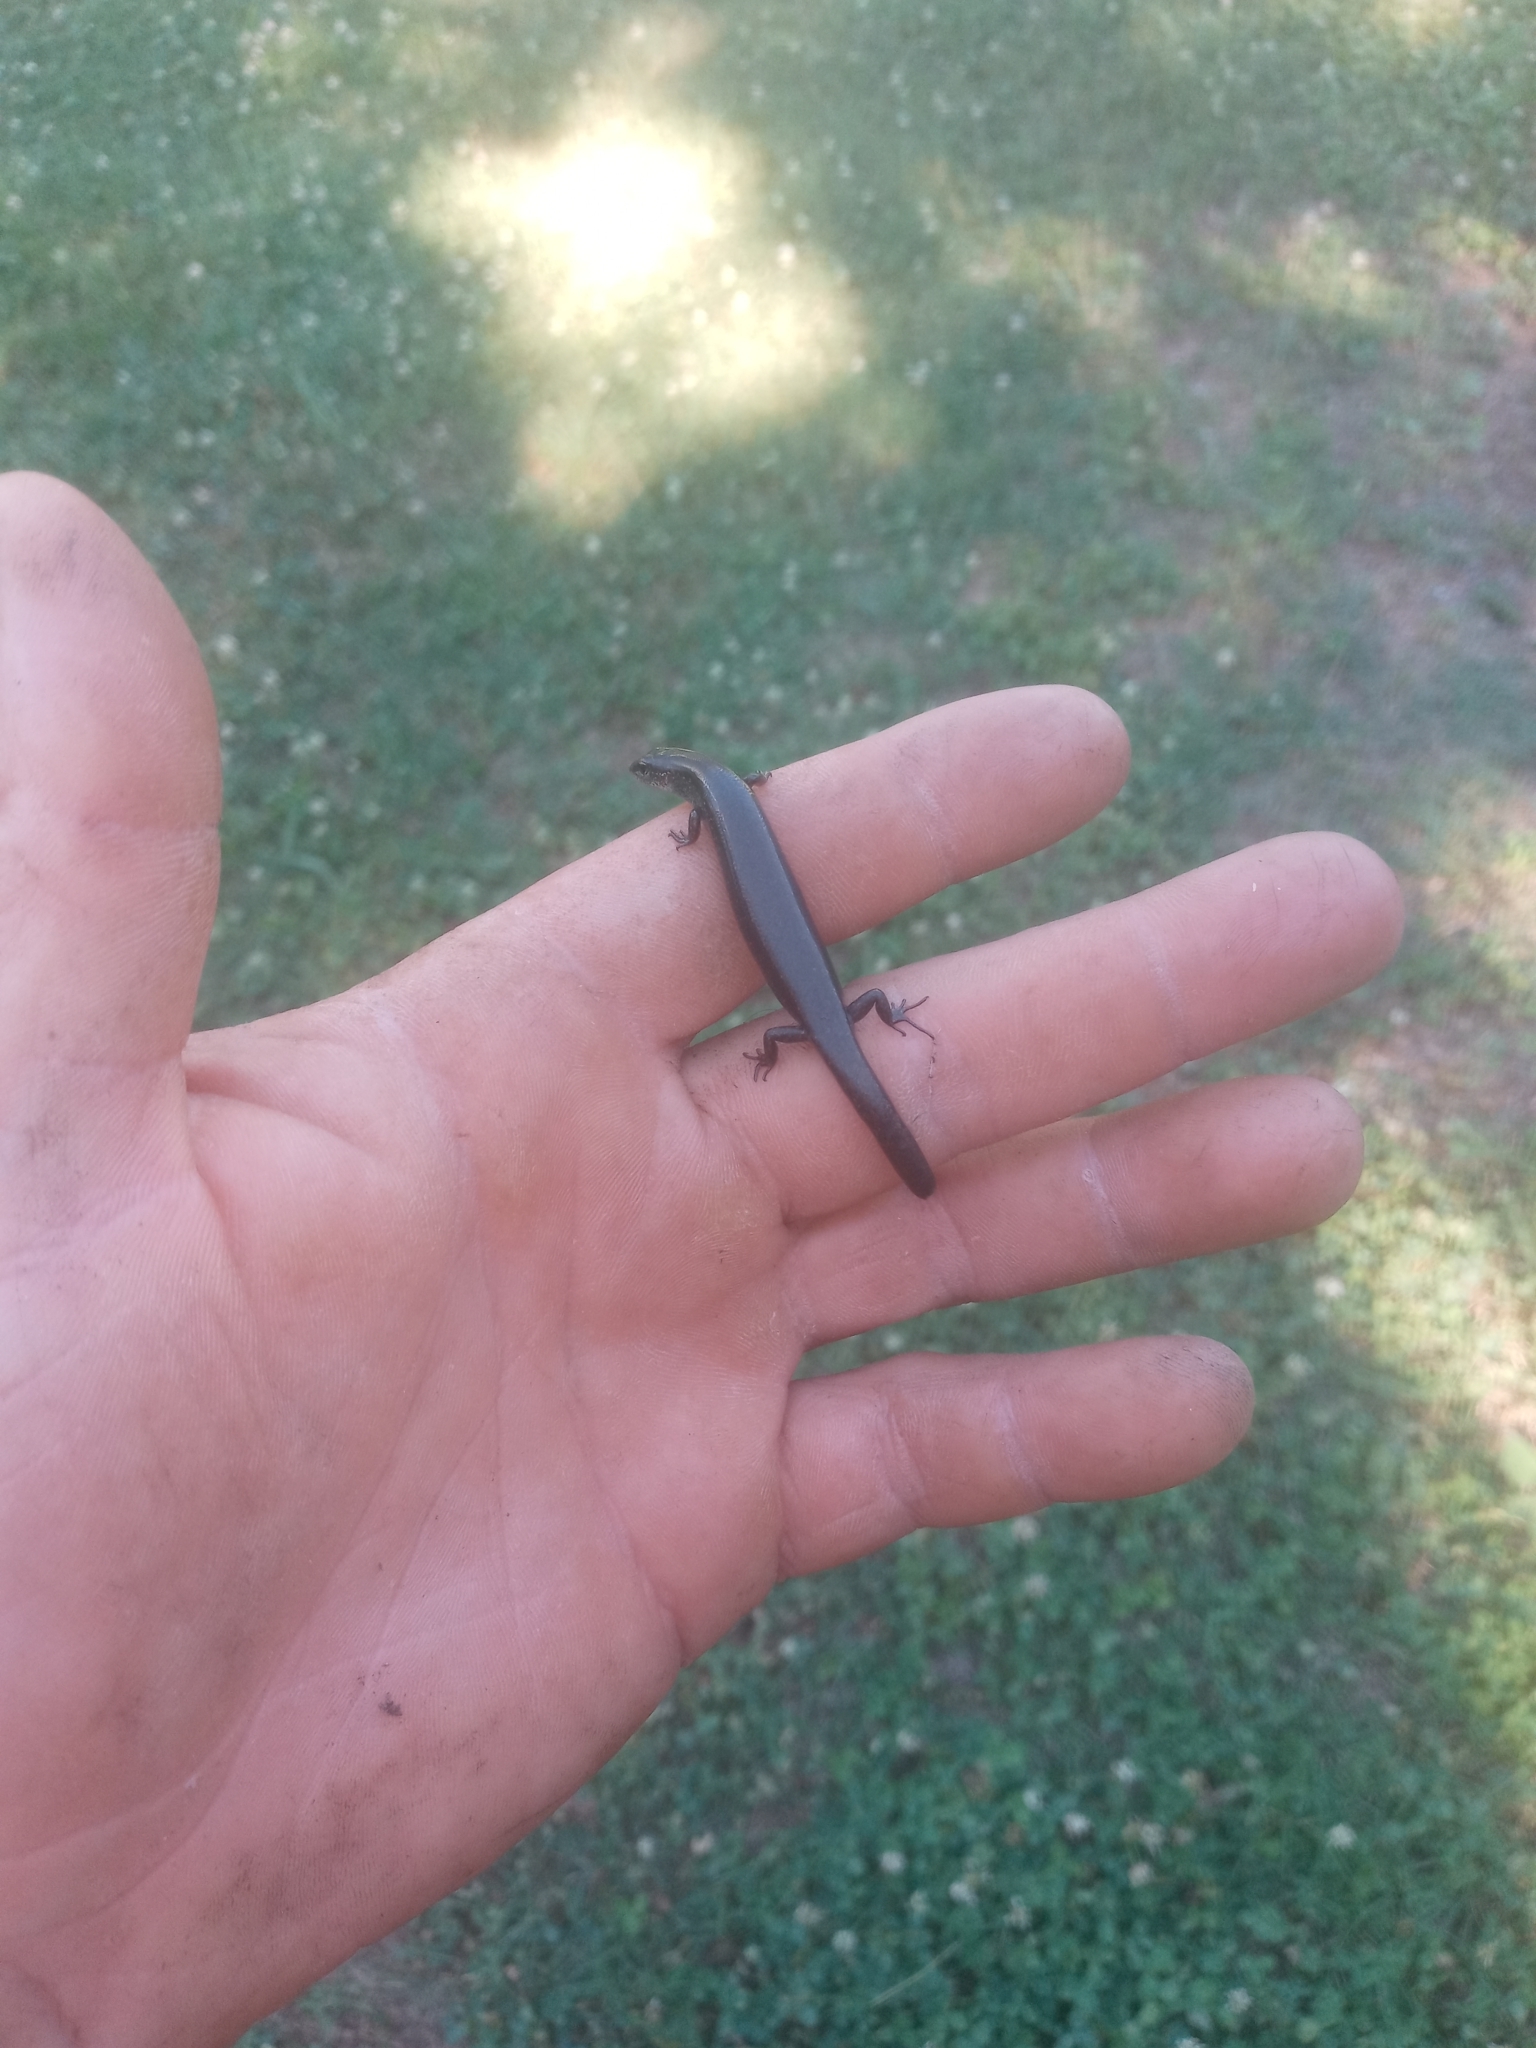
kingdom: Animalia
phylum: Chordata
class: Squamata
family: Scincidae
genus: Scincella
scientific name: Scincella lateralis
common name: Ground skink
